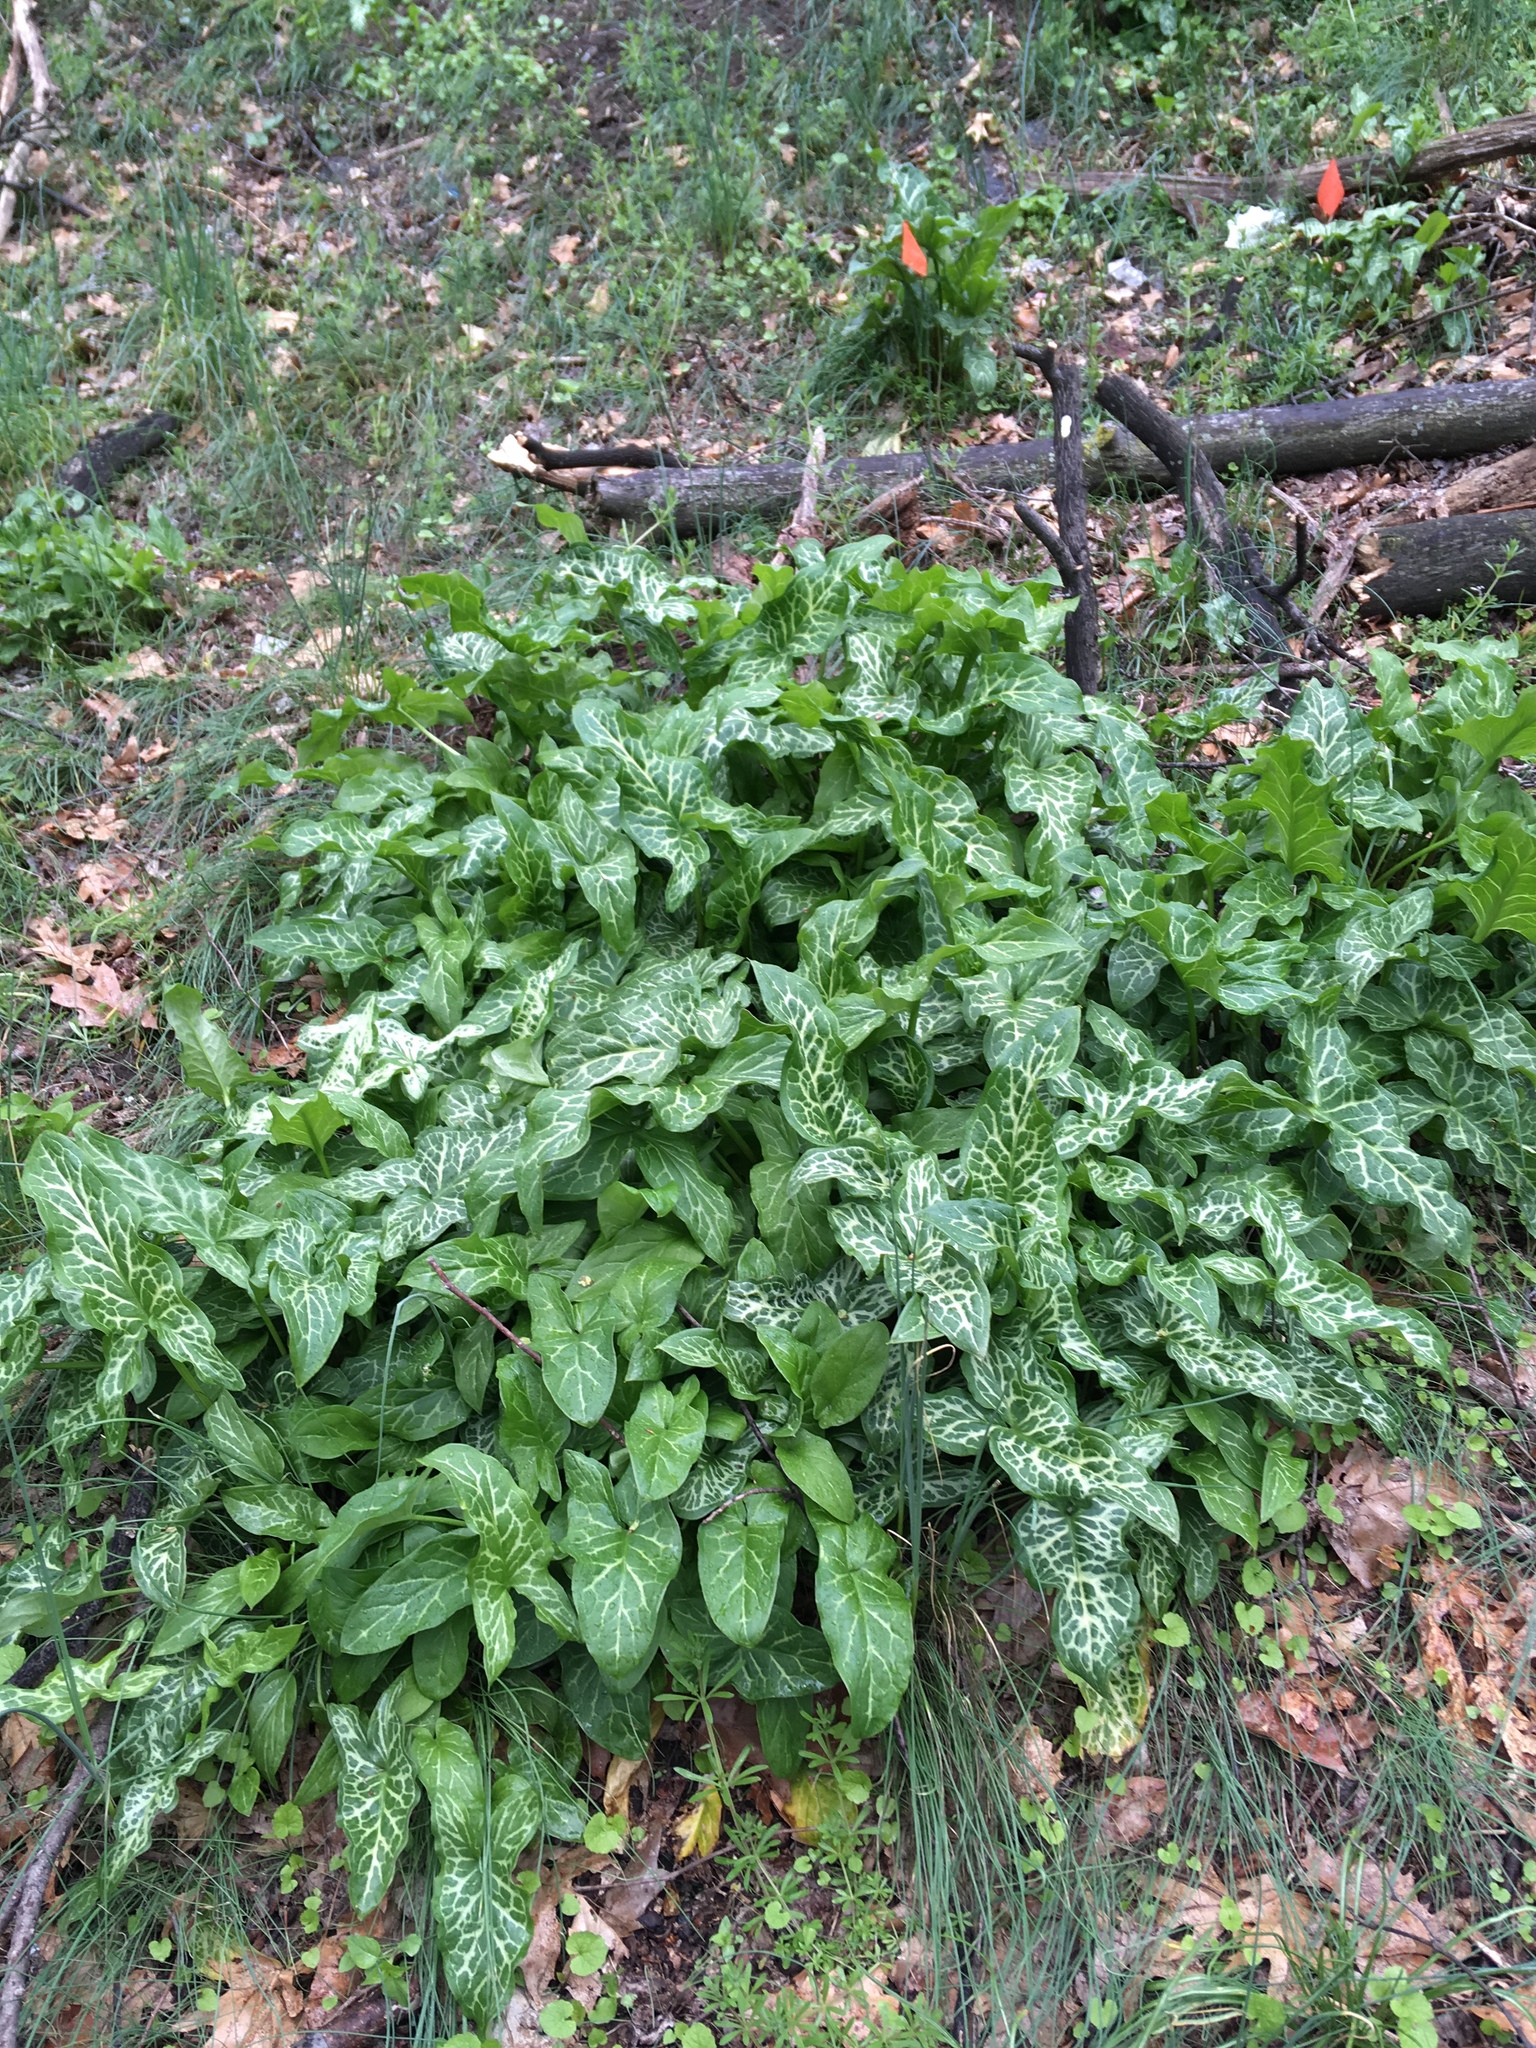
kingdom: Plantae
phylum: Tracheophyta
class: Liliopsida
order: Alismatales
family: Araceae
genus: Arum
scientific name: Arum italicum
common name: Italian lords-and-ladies
